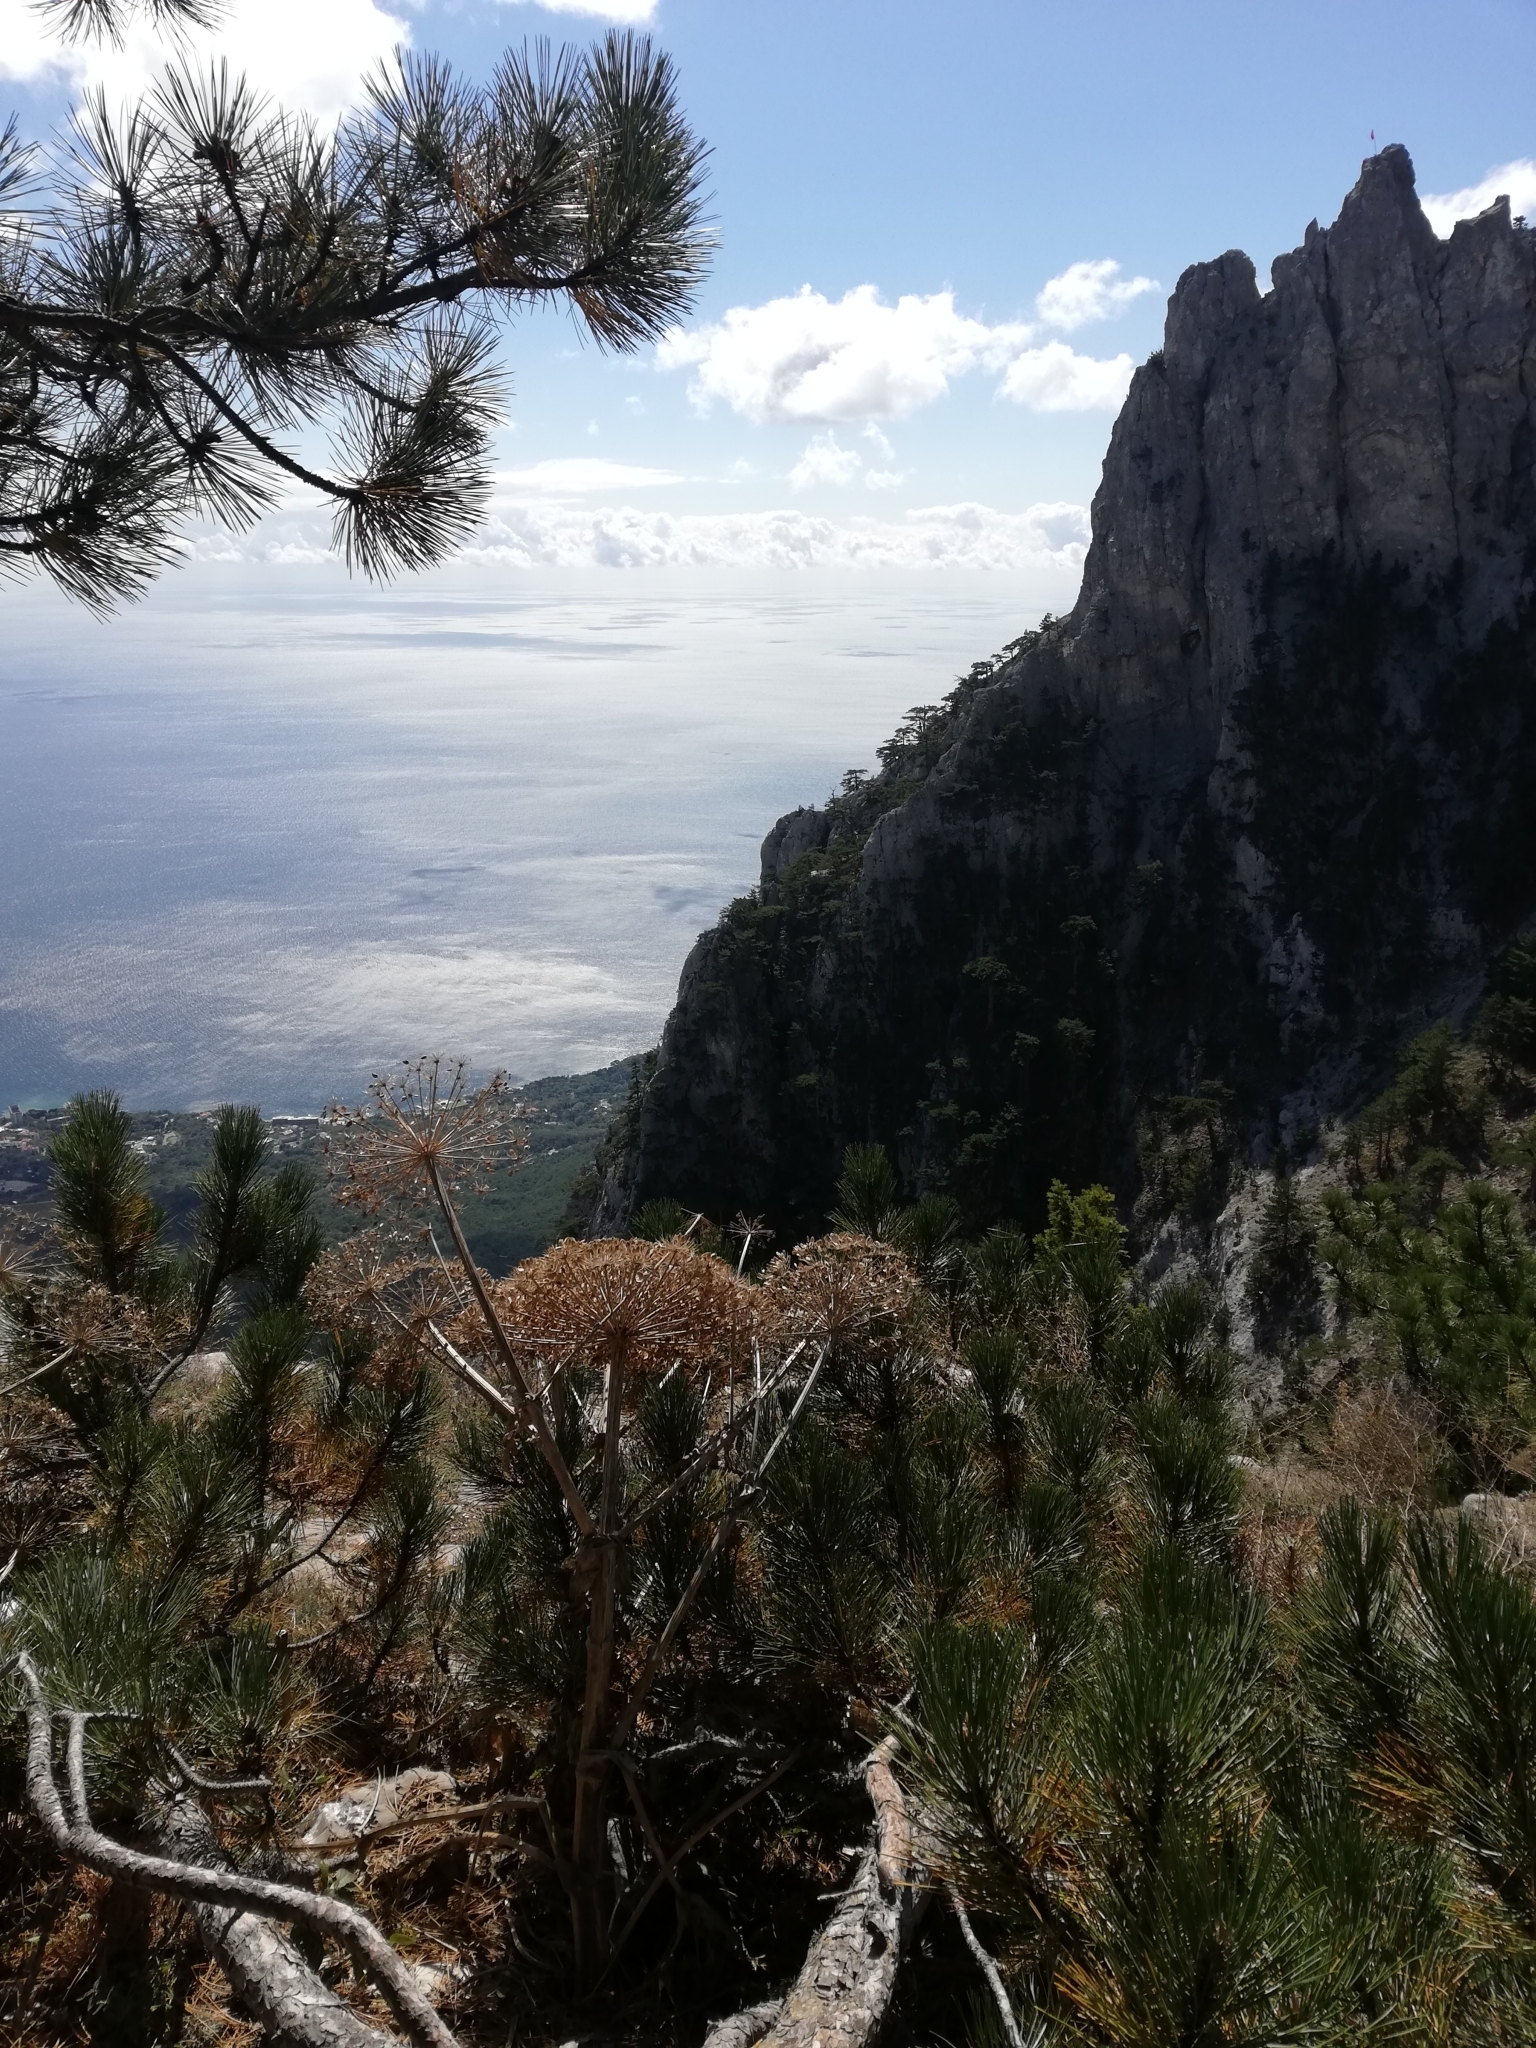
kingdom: Plantae
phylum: Tracheophyta
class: Magnoliopsida
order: Apiales
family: Apiaceae
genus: Heracleum
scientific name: Heracleum stevenii
